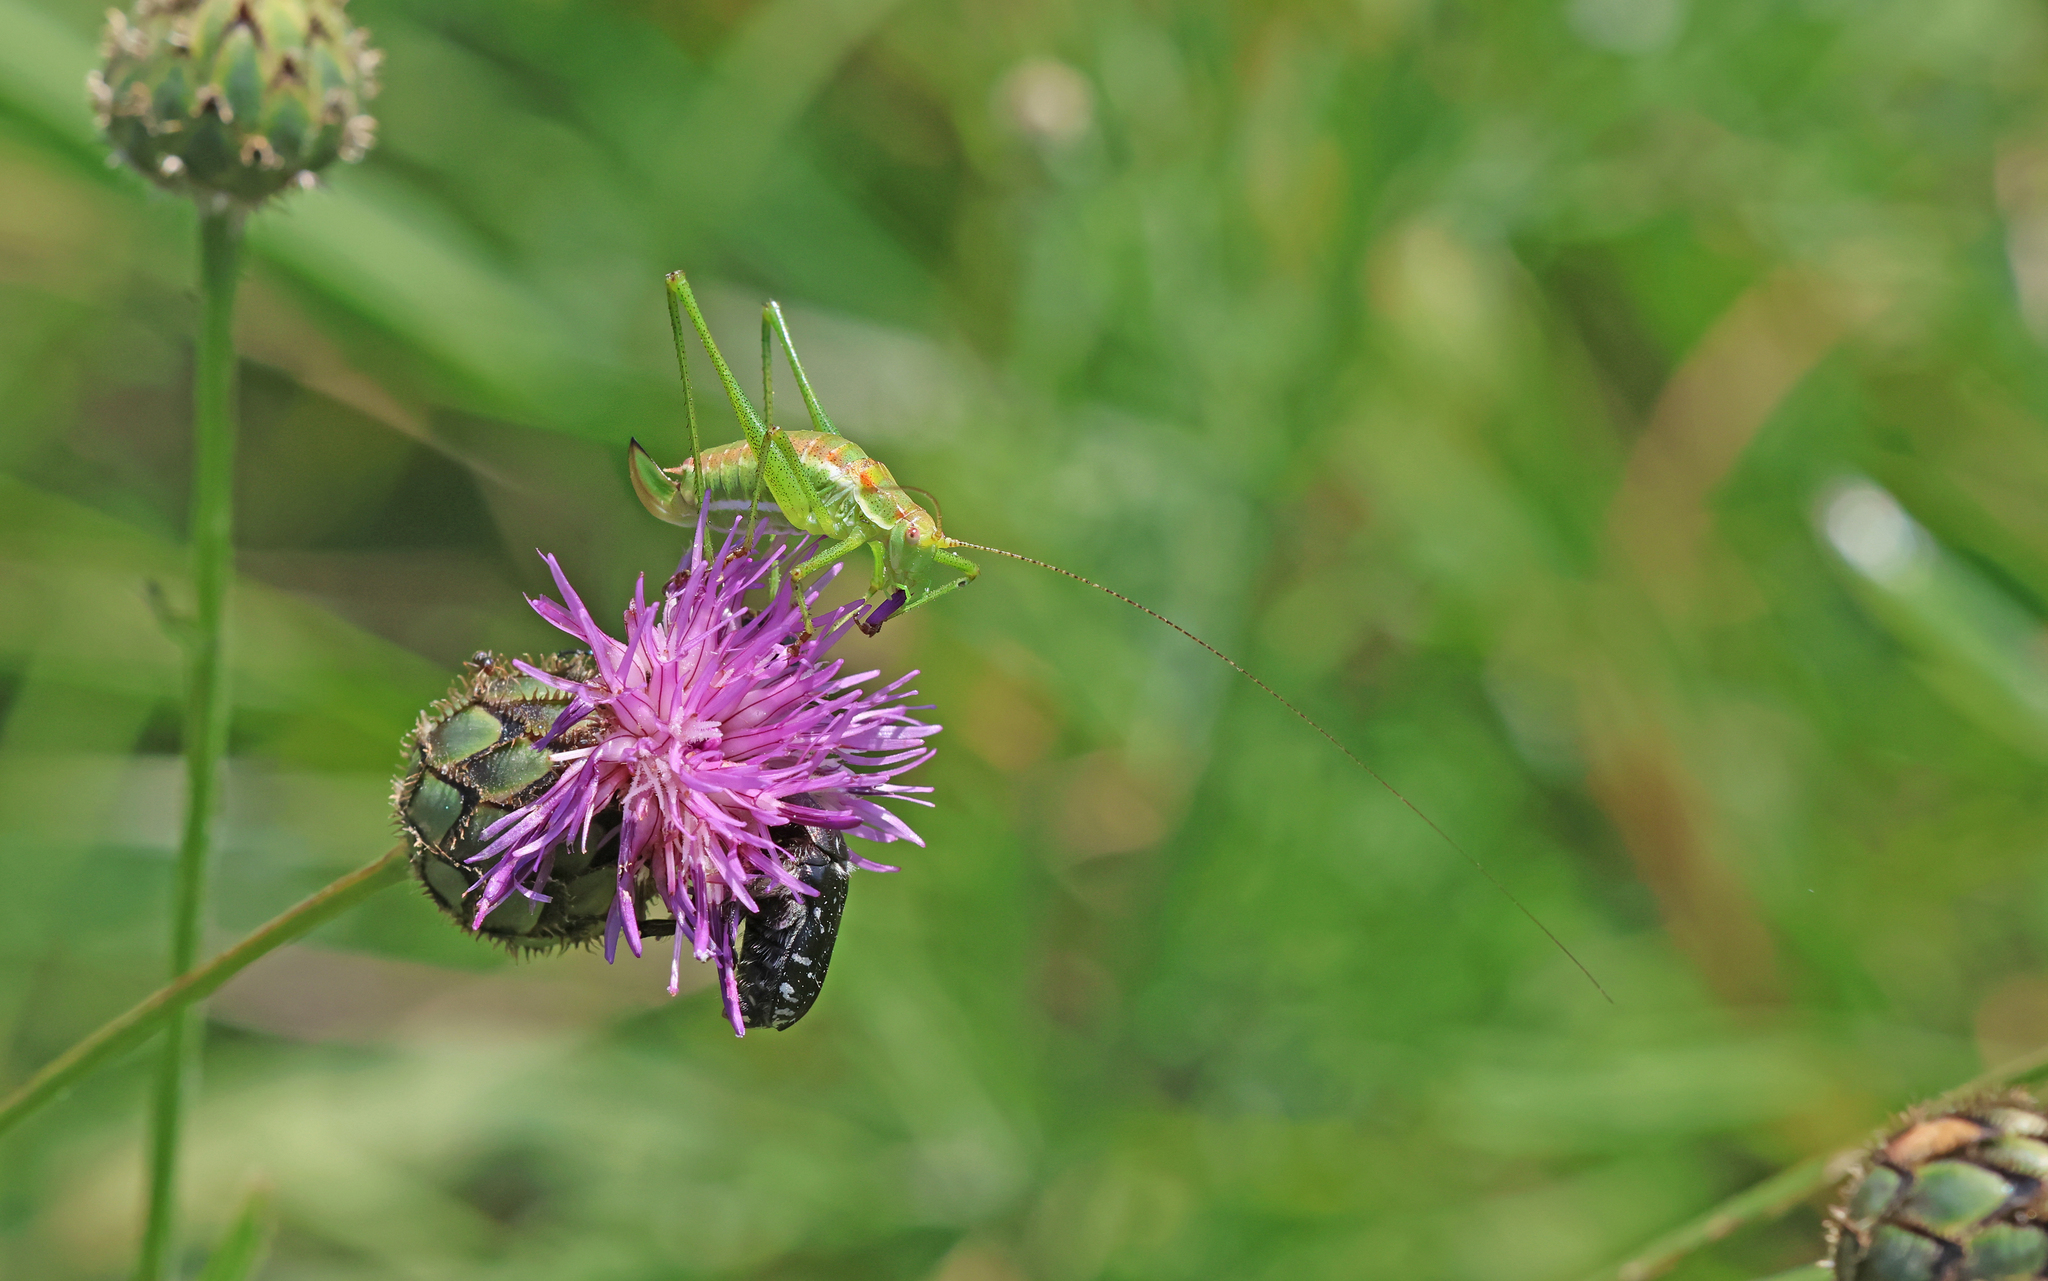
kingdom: Animalia
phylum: Arthropoda
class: Insecta
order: Orthoptera
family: Tettigoniidae
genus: Leptophyes
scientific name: Leptophyes albovittata
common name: Striped bush-cricket
